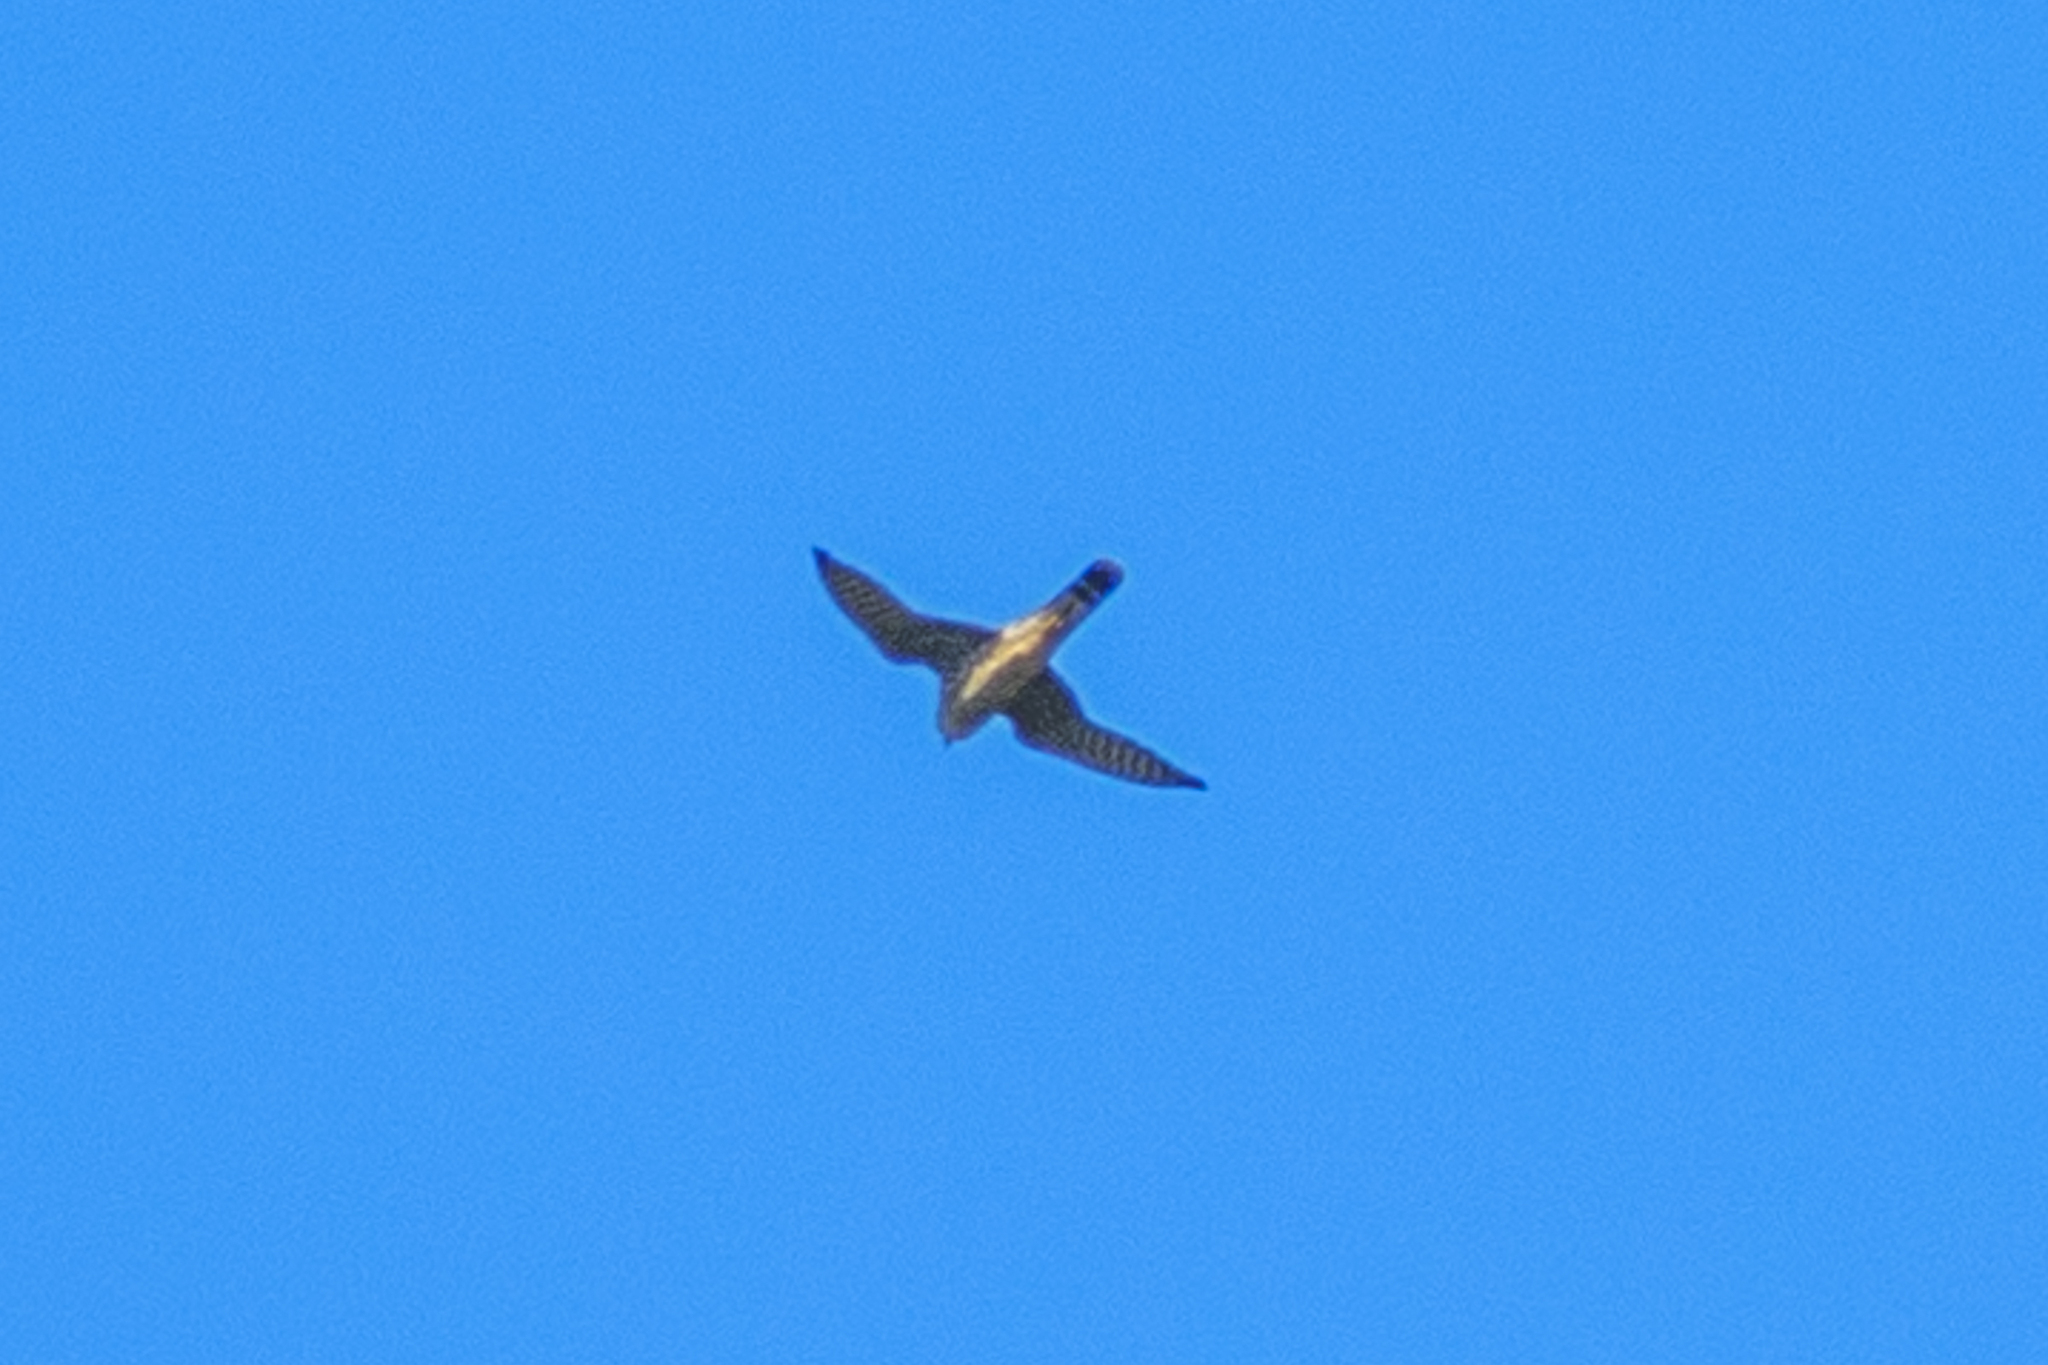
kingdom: Animalia
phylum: Chordata
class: Aves
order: Falconiformes
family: Falconidae
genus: Falco
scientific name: Falco columbarius
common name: Merlin
